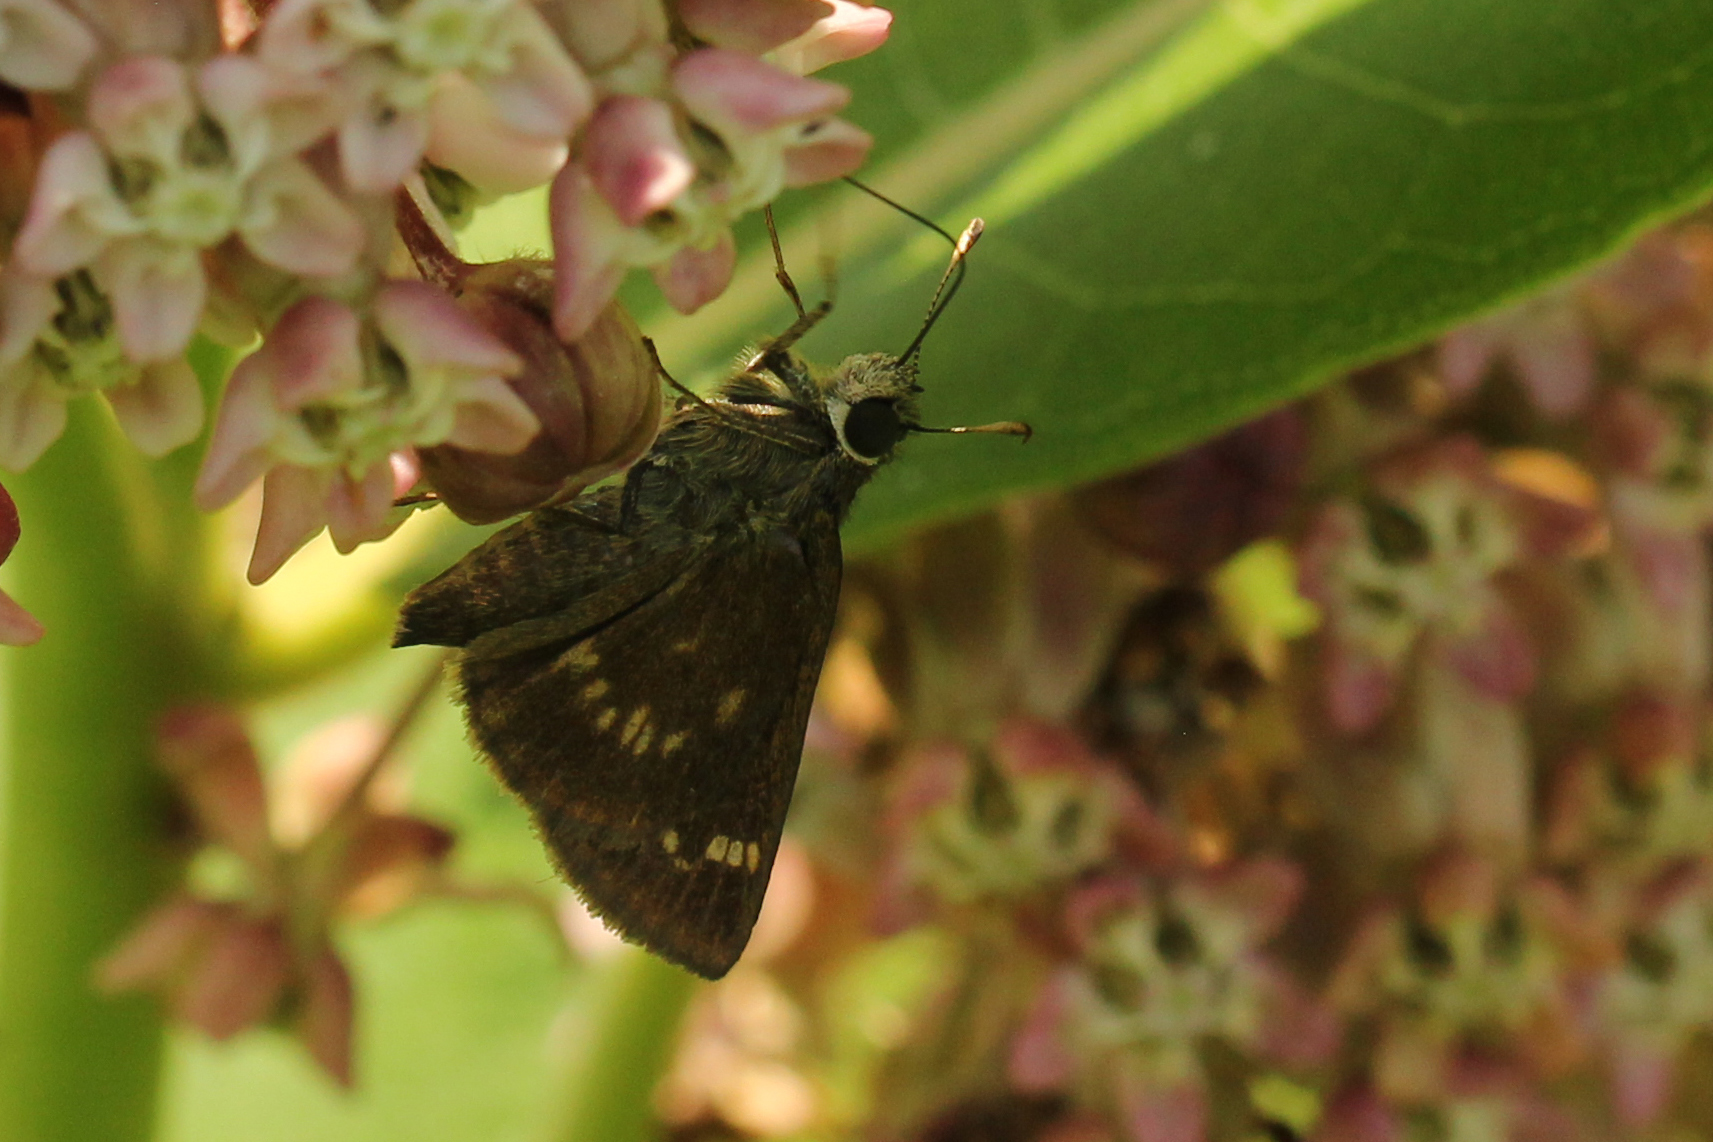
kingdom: Animalia
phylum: Arthropoda
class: Insecta
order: Lepidoptera
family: Hesperiidae
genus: Vernia
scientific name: Vernia verna
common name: Little glassywing
